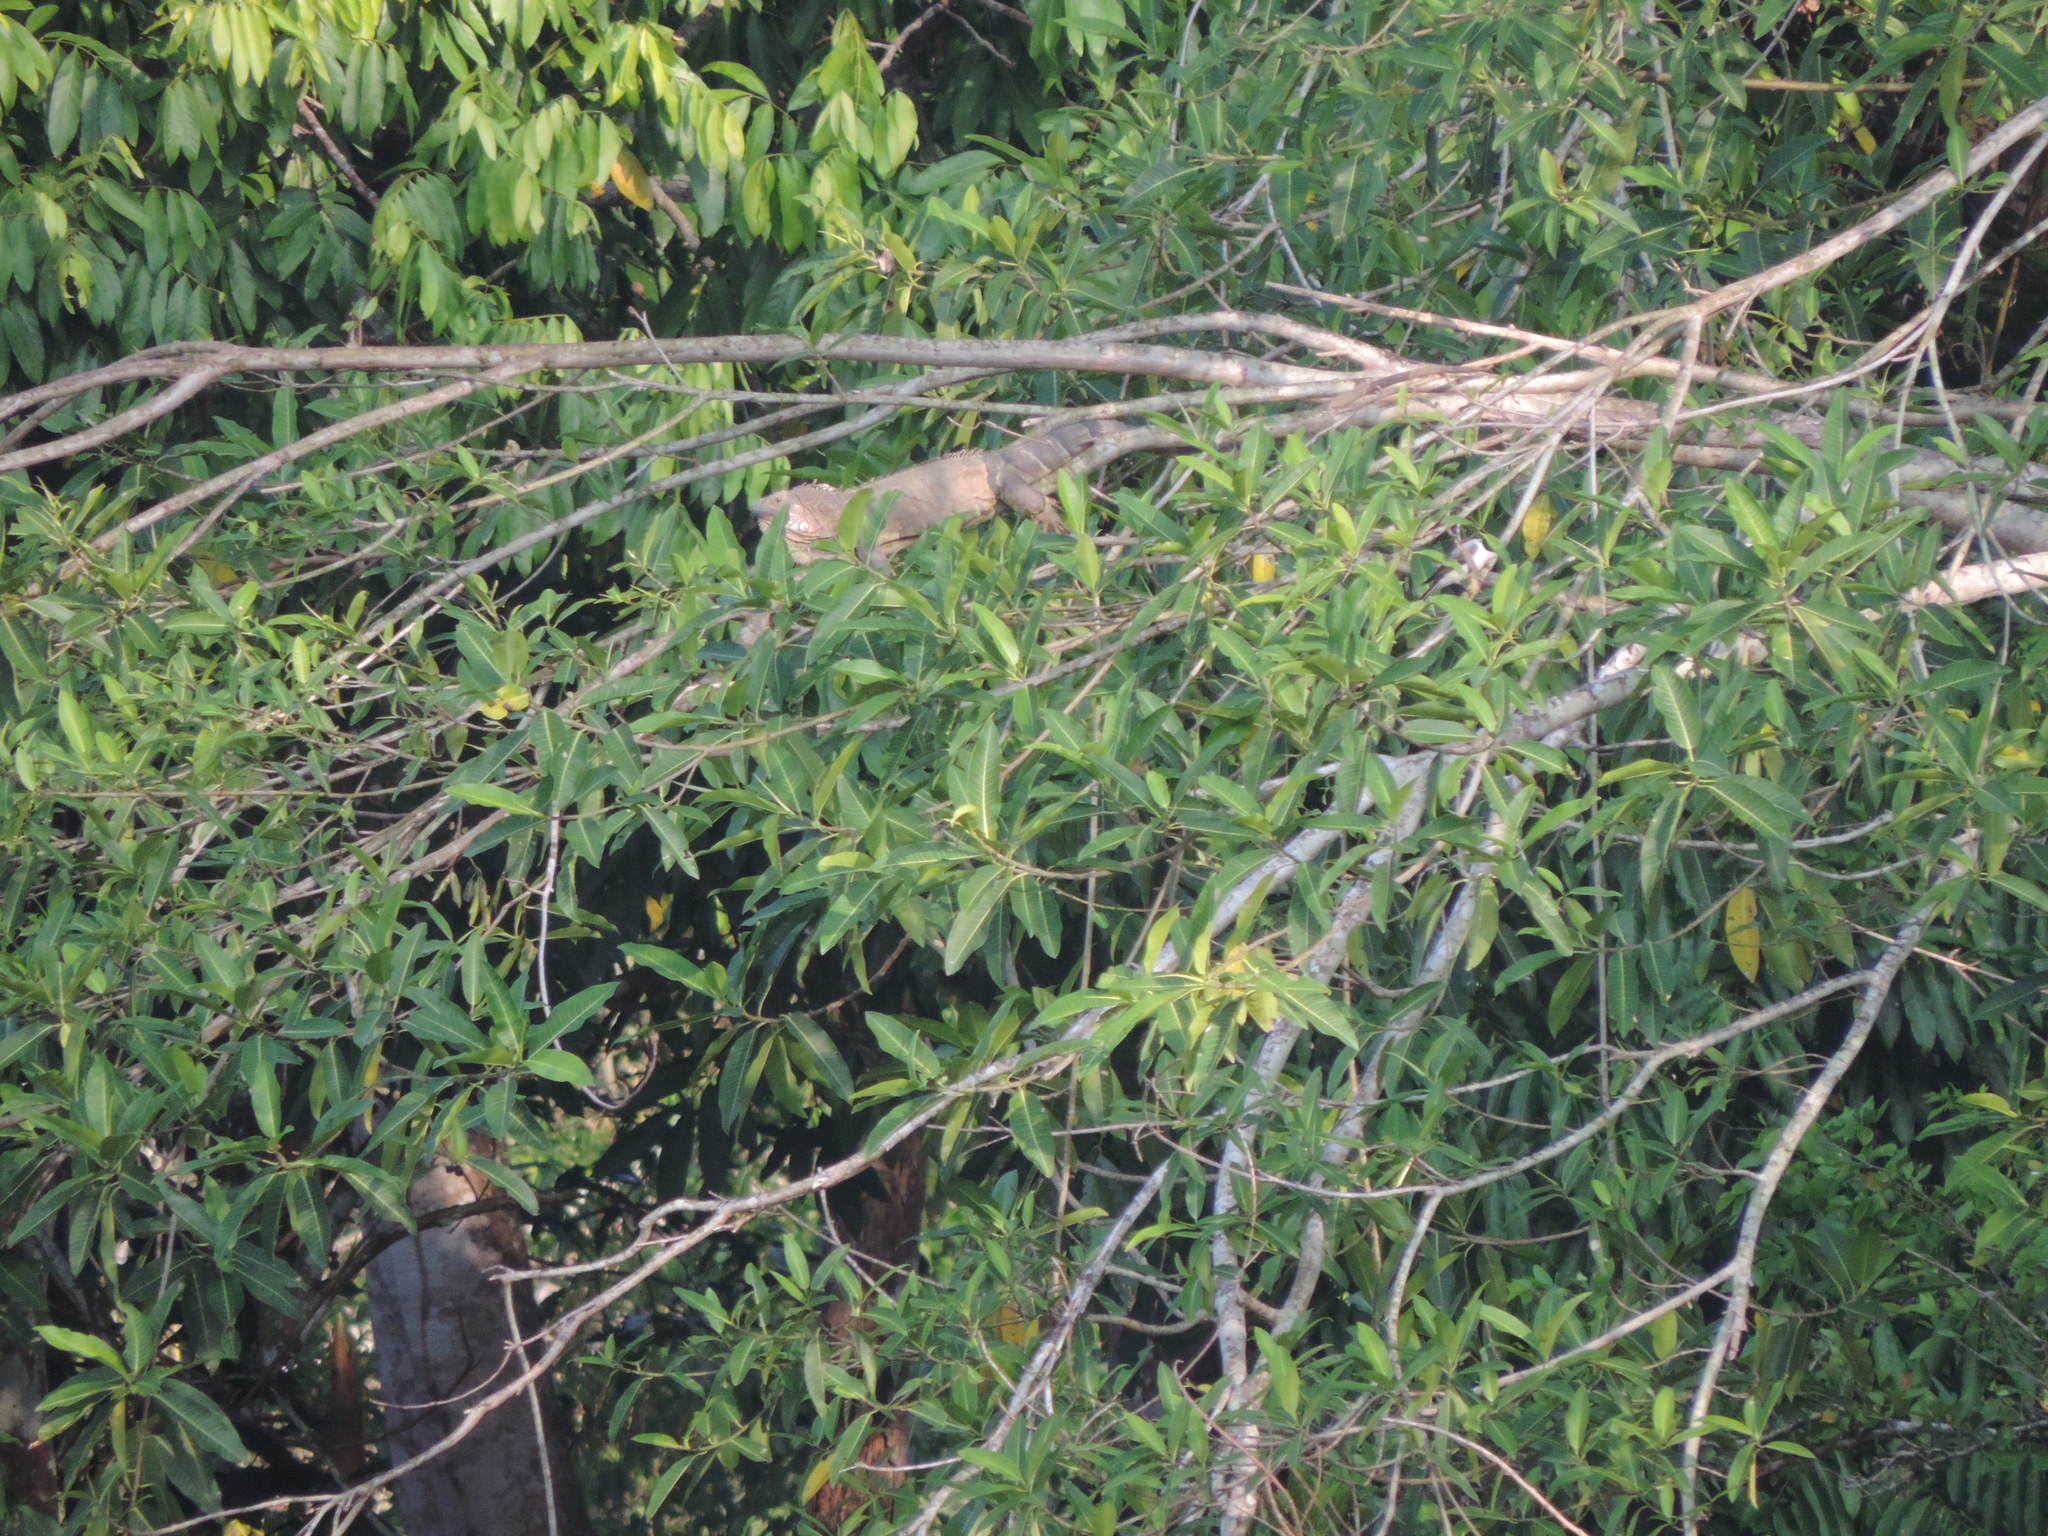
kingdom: Animalia
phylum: Chordata
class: Squamata
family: Iguanidae
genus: Iguana
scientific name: Iguana iguana
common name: Green iguana
